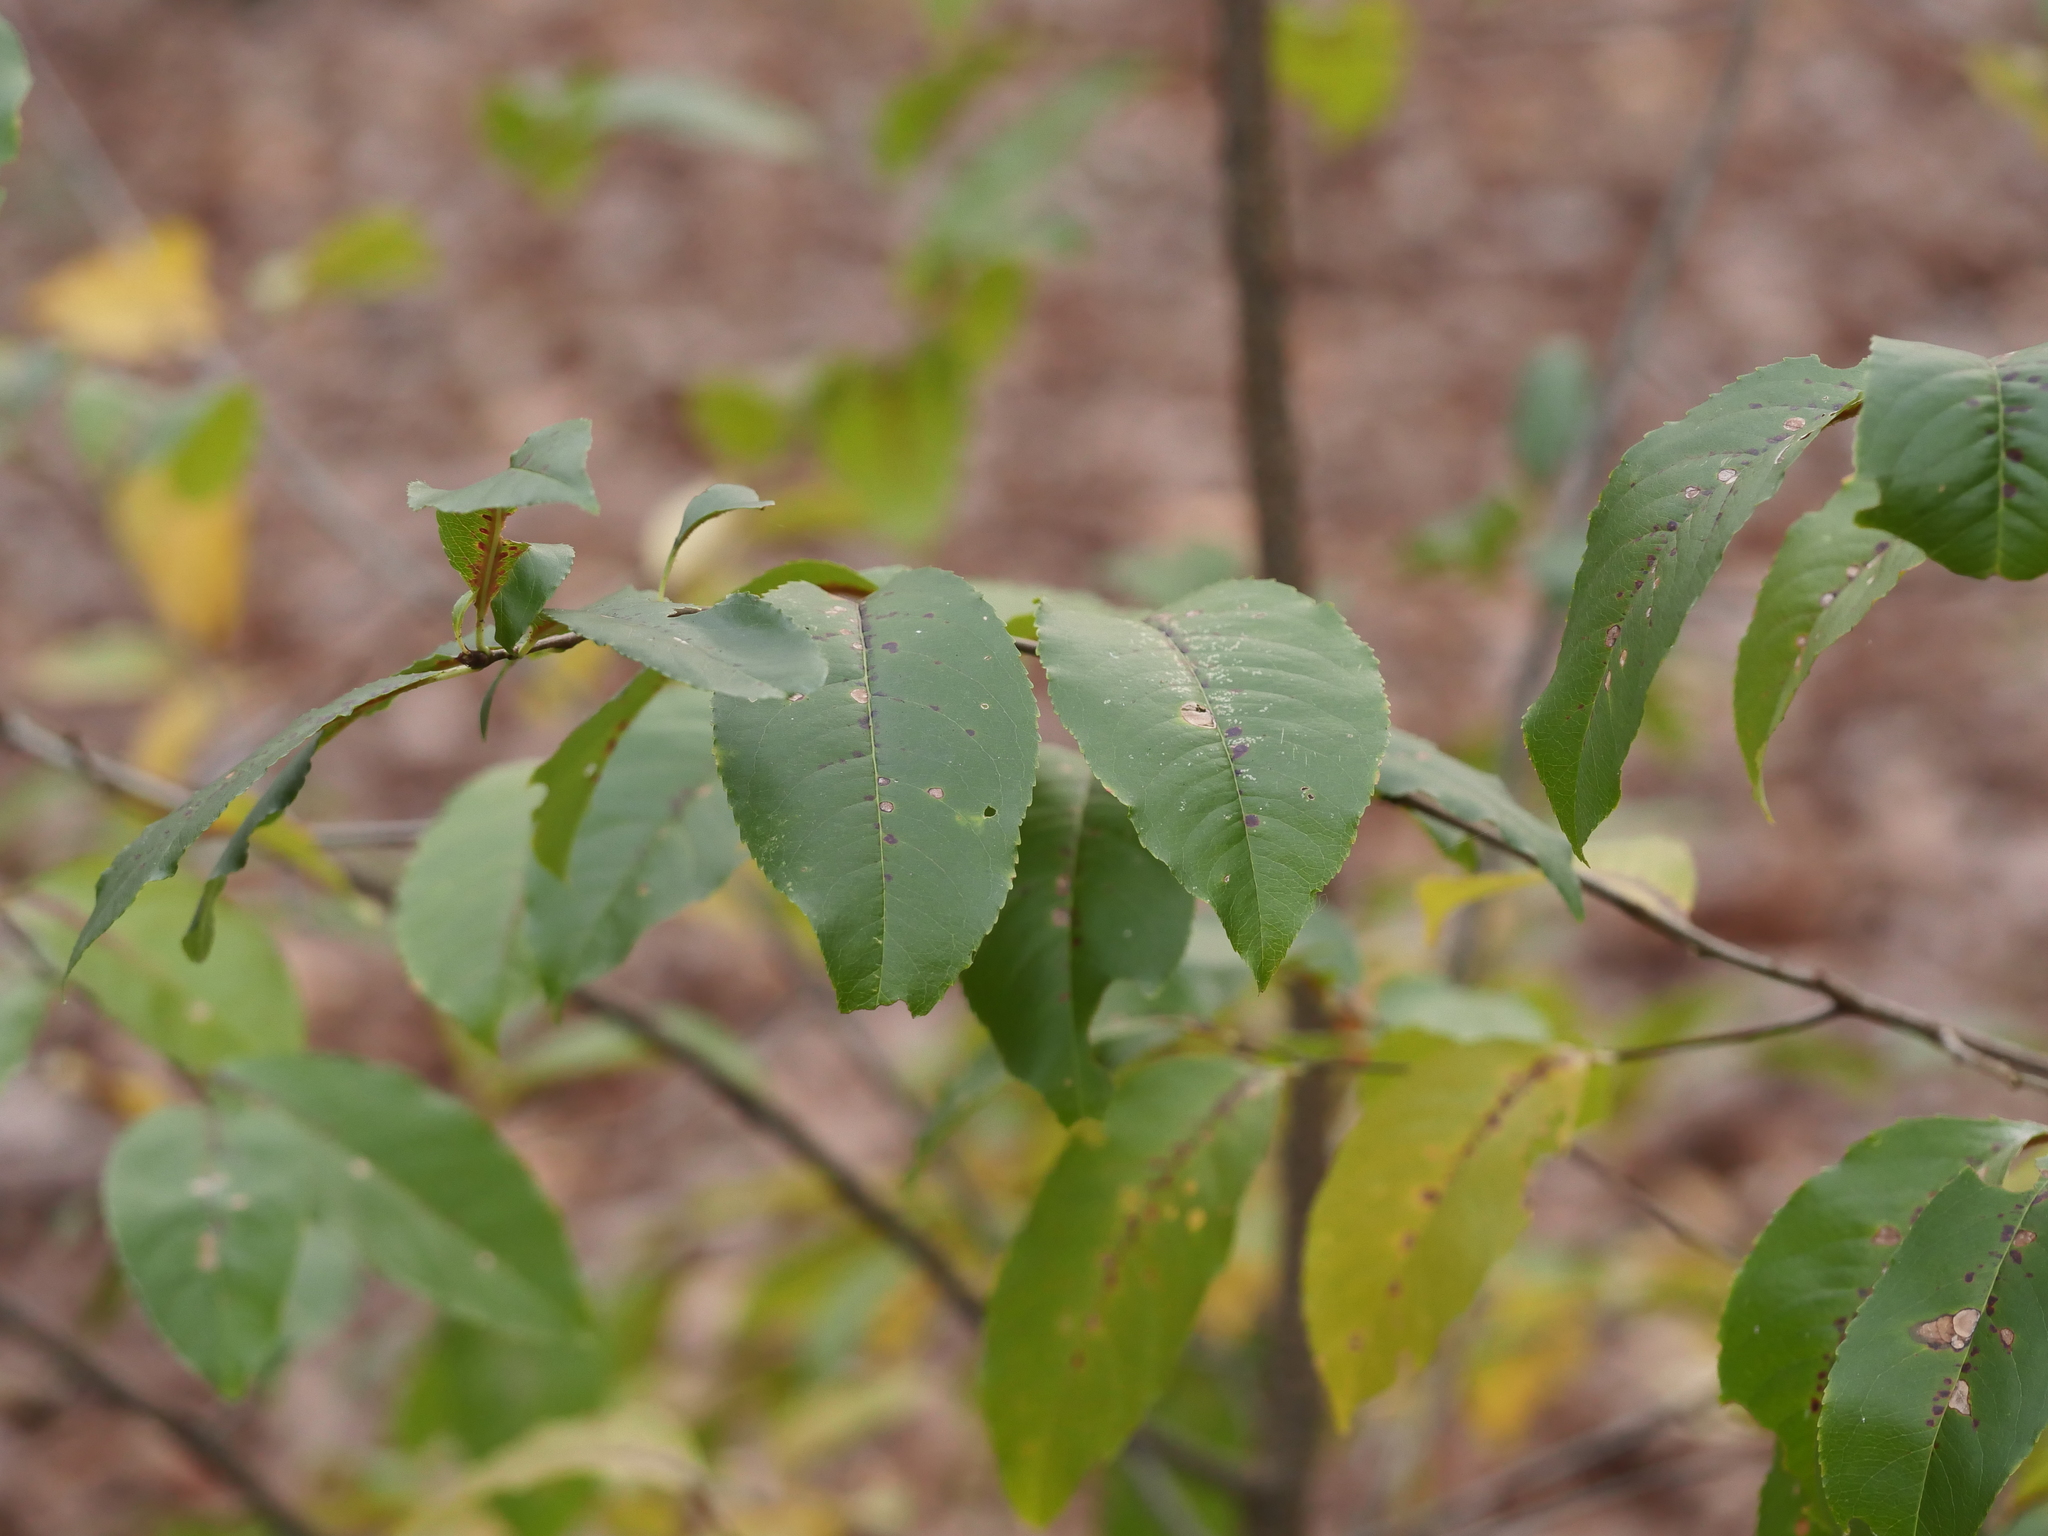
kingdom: Plantae
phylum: Tracheophyta
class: Magnoliopsida
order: Rosales
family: Rosaceae
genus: Prunus
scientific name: Prunus serotina
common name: Black cherry
